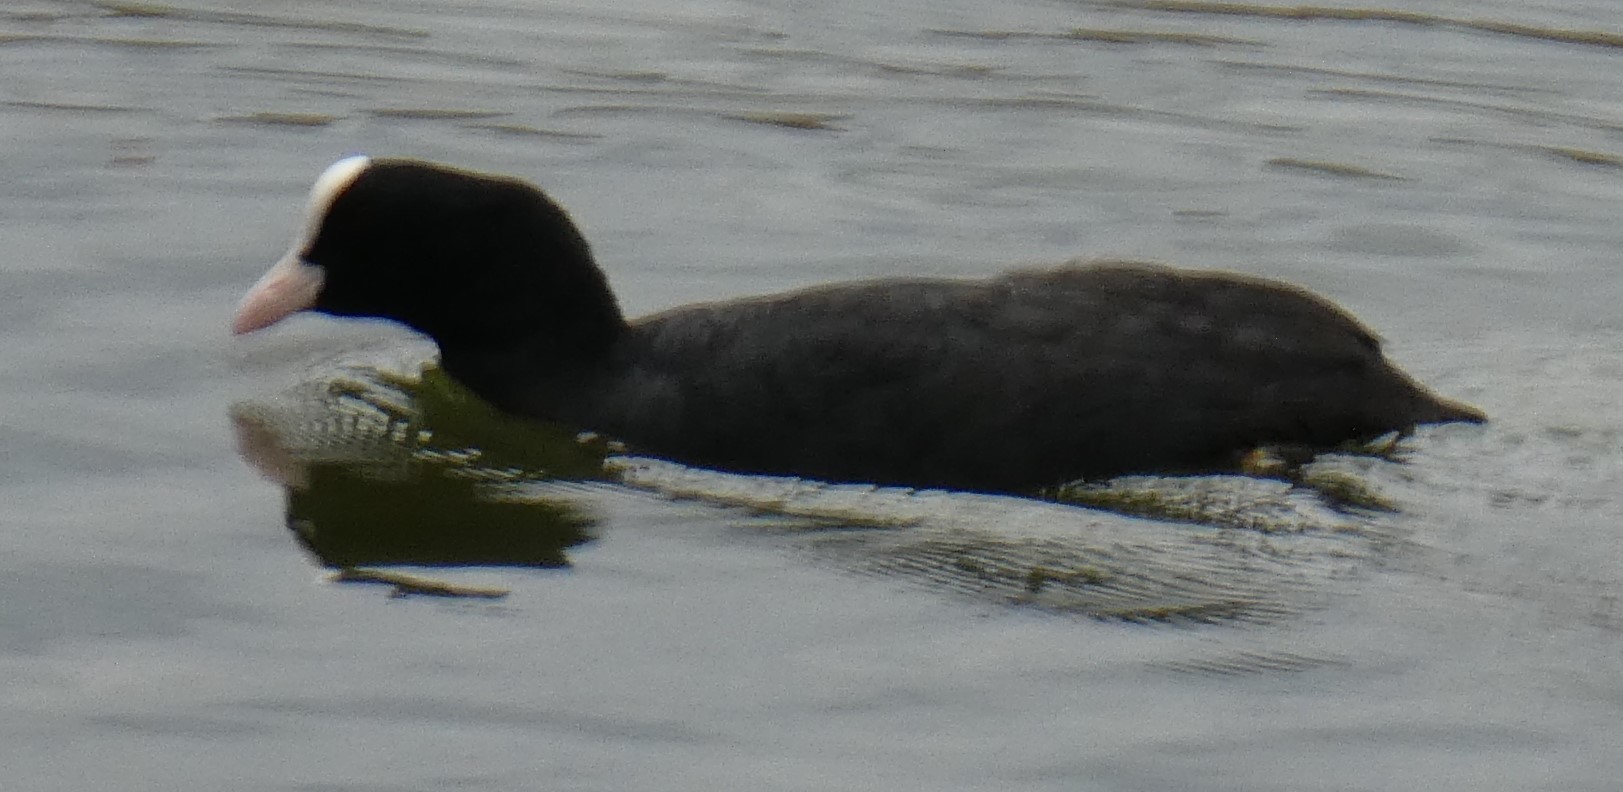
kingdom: Animalia
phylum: Chordata
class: Aves
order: Gruiformes
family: Rallidae
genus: Fulica
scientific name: Fulica atra
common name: Eurasian coot
